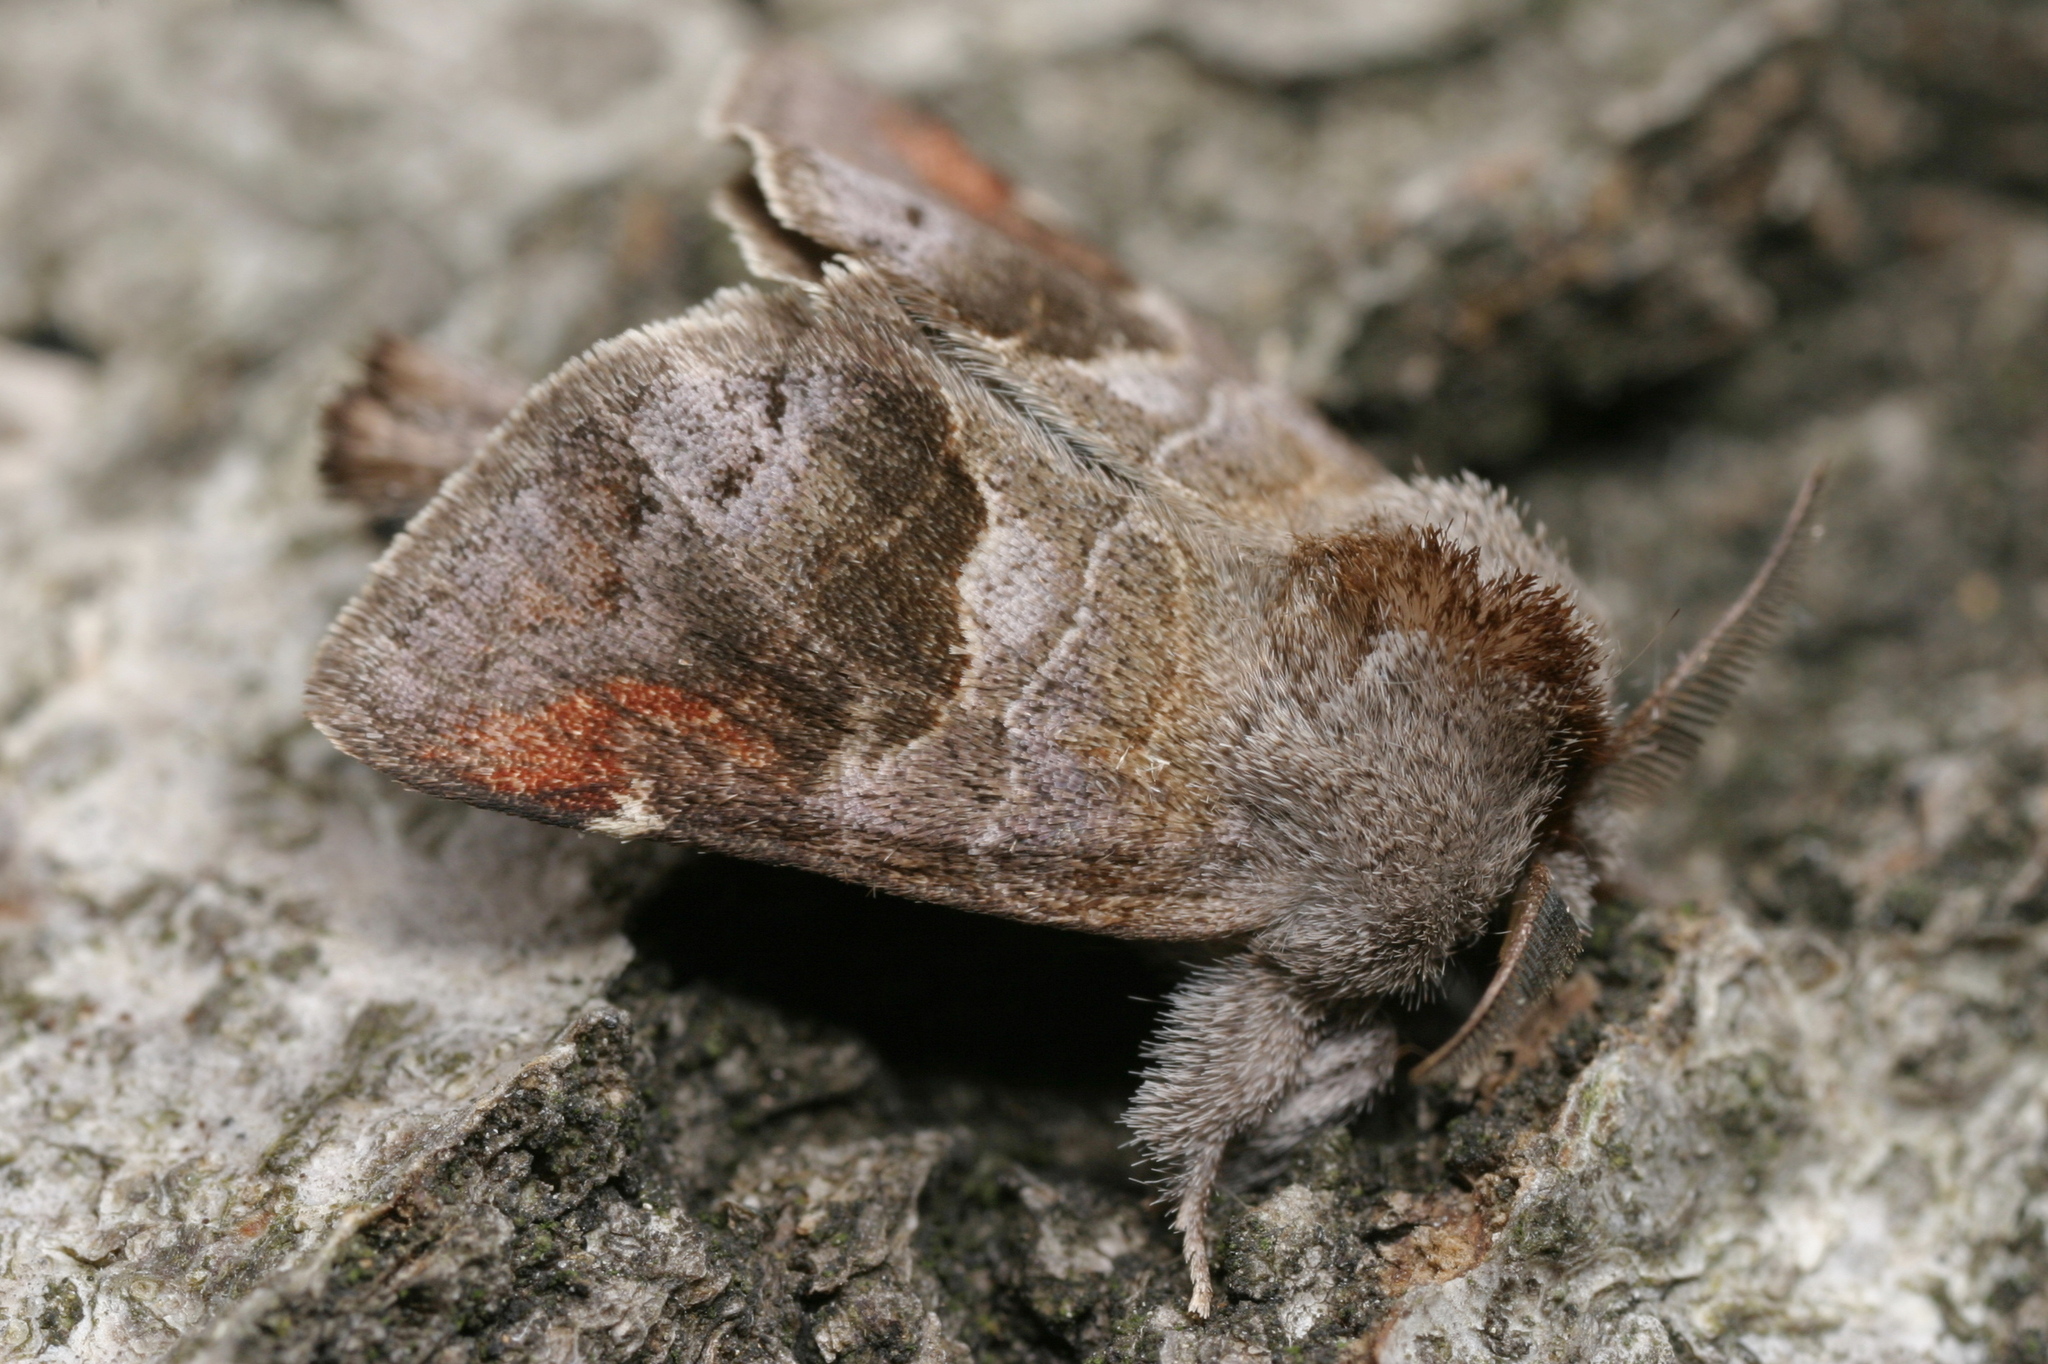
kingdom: Animalia
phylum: Arthropoda
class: Insecta
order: Lepidoptera
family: Notodontidae
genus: Clostera
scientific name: Clostera pigra
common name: Small chocolate-tip
